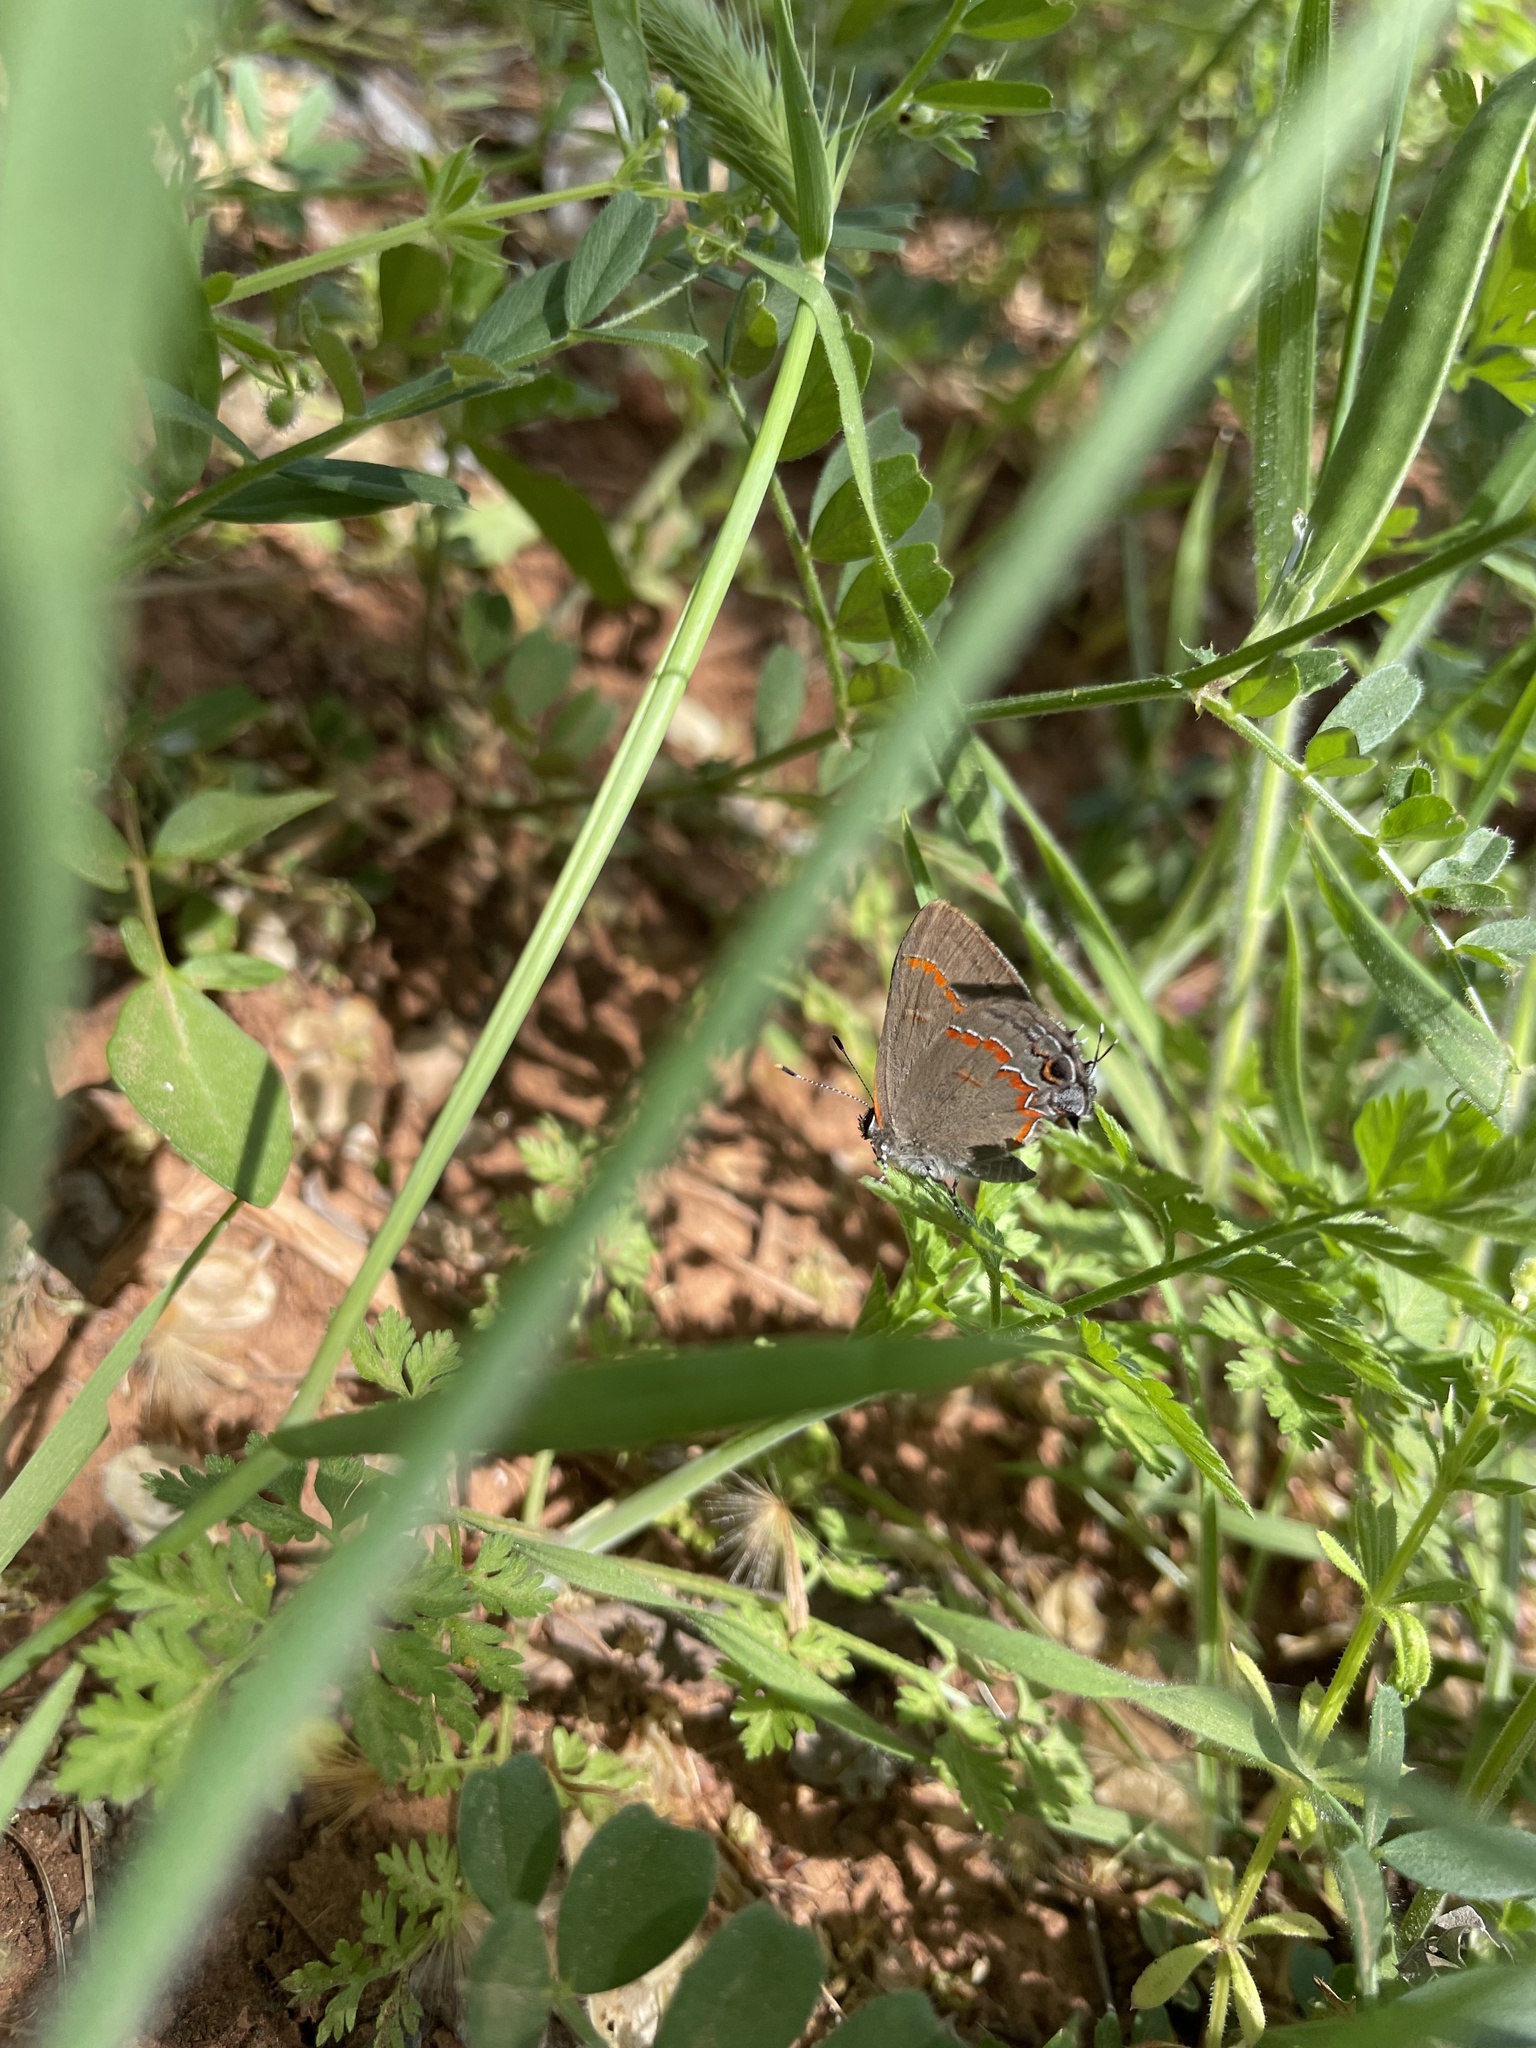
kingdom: Animalia
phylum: Arthropoda
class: Insecta
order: Lepidoptera
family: Lycaenidae
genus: Calycopis
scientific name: Calycopis cecrops
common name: Red-banded hairstreak
